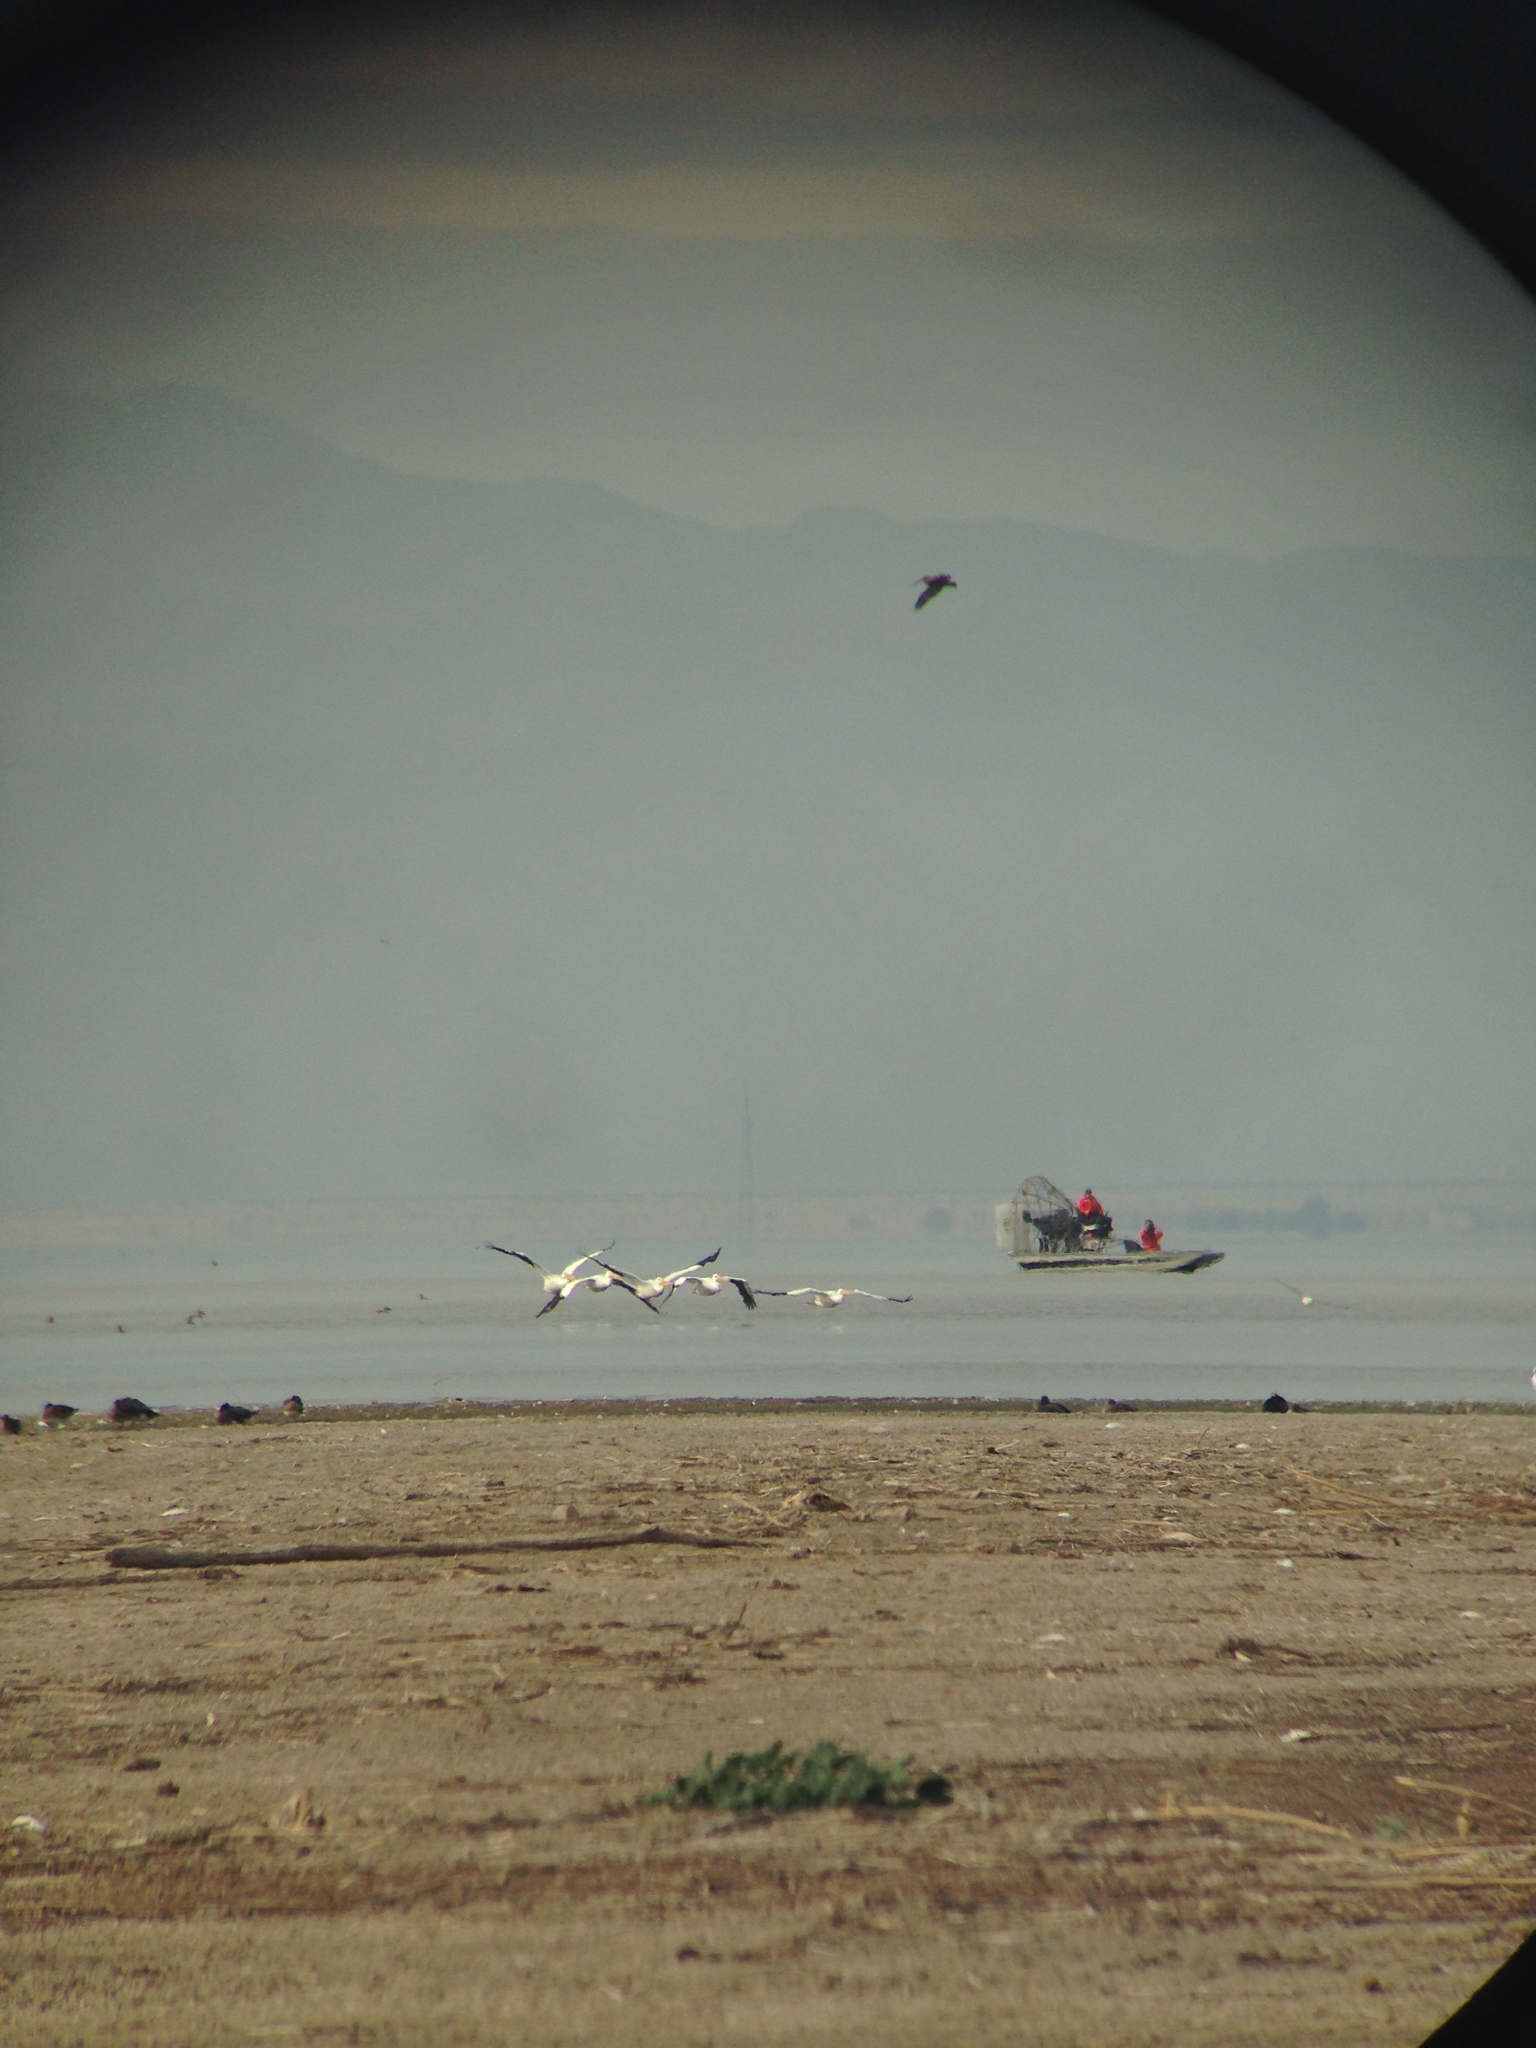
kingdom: Animalia
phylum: Chordata
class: Aves
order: Pelecaniformes
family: Pelecanidae
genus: Pelecanus
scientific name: Pelecanus erythrorhynchos
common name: American white pelican
